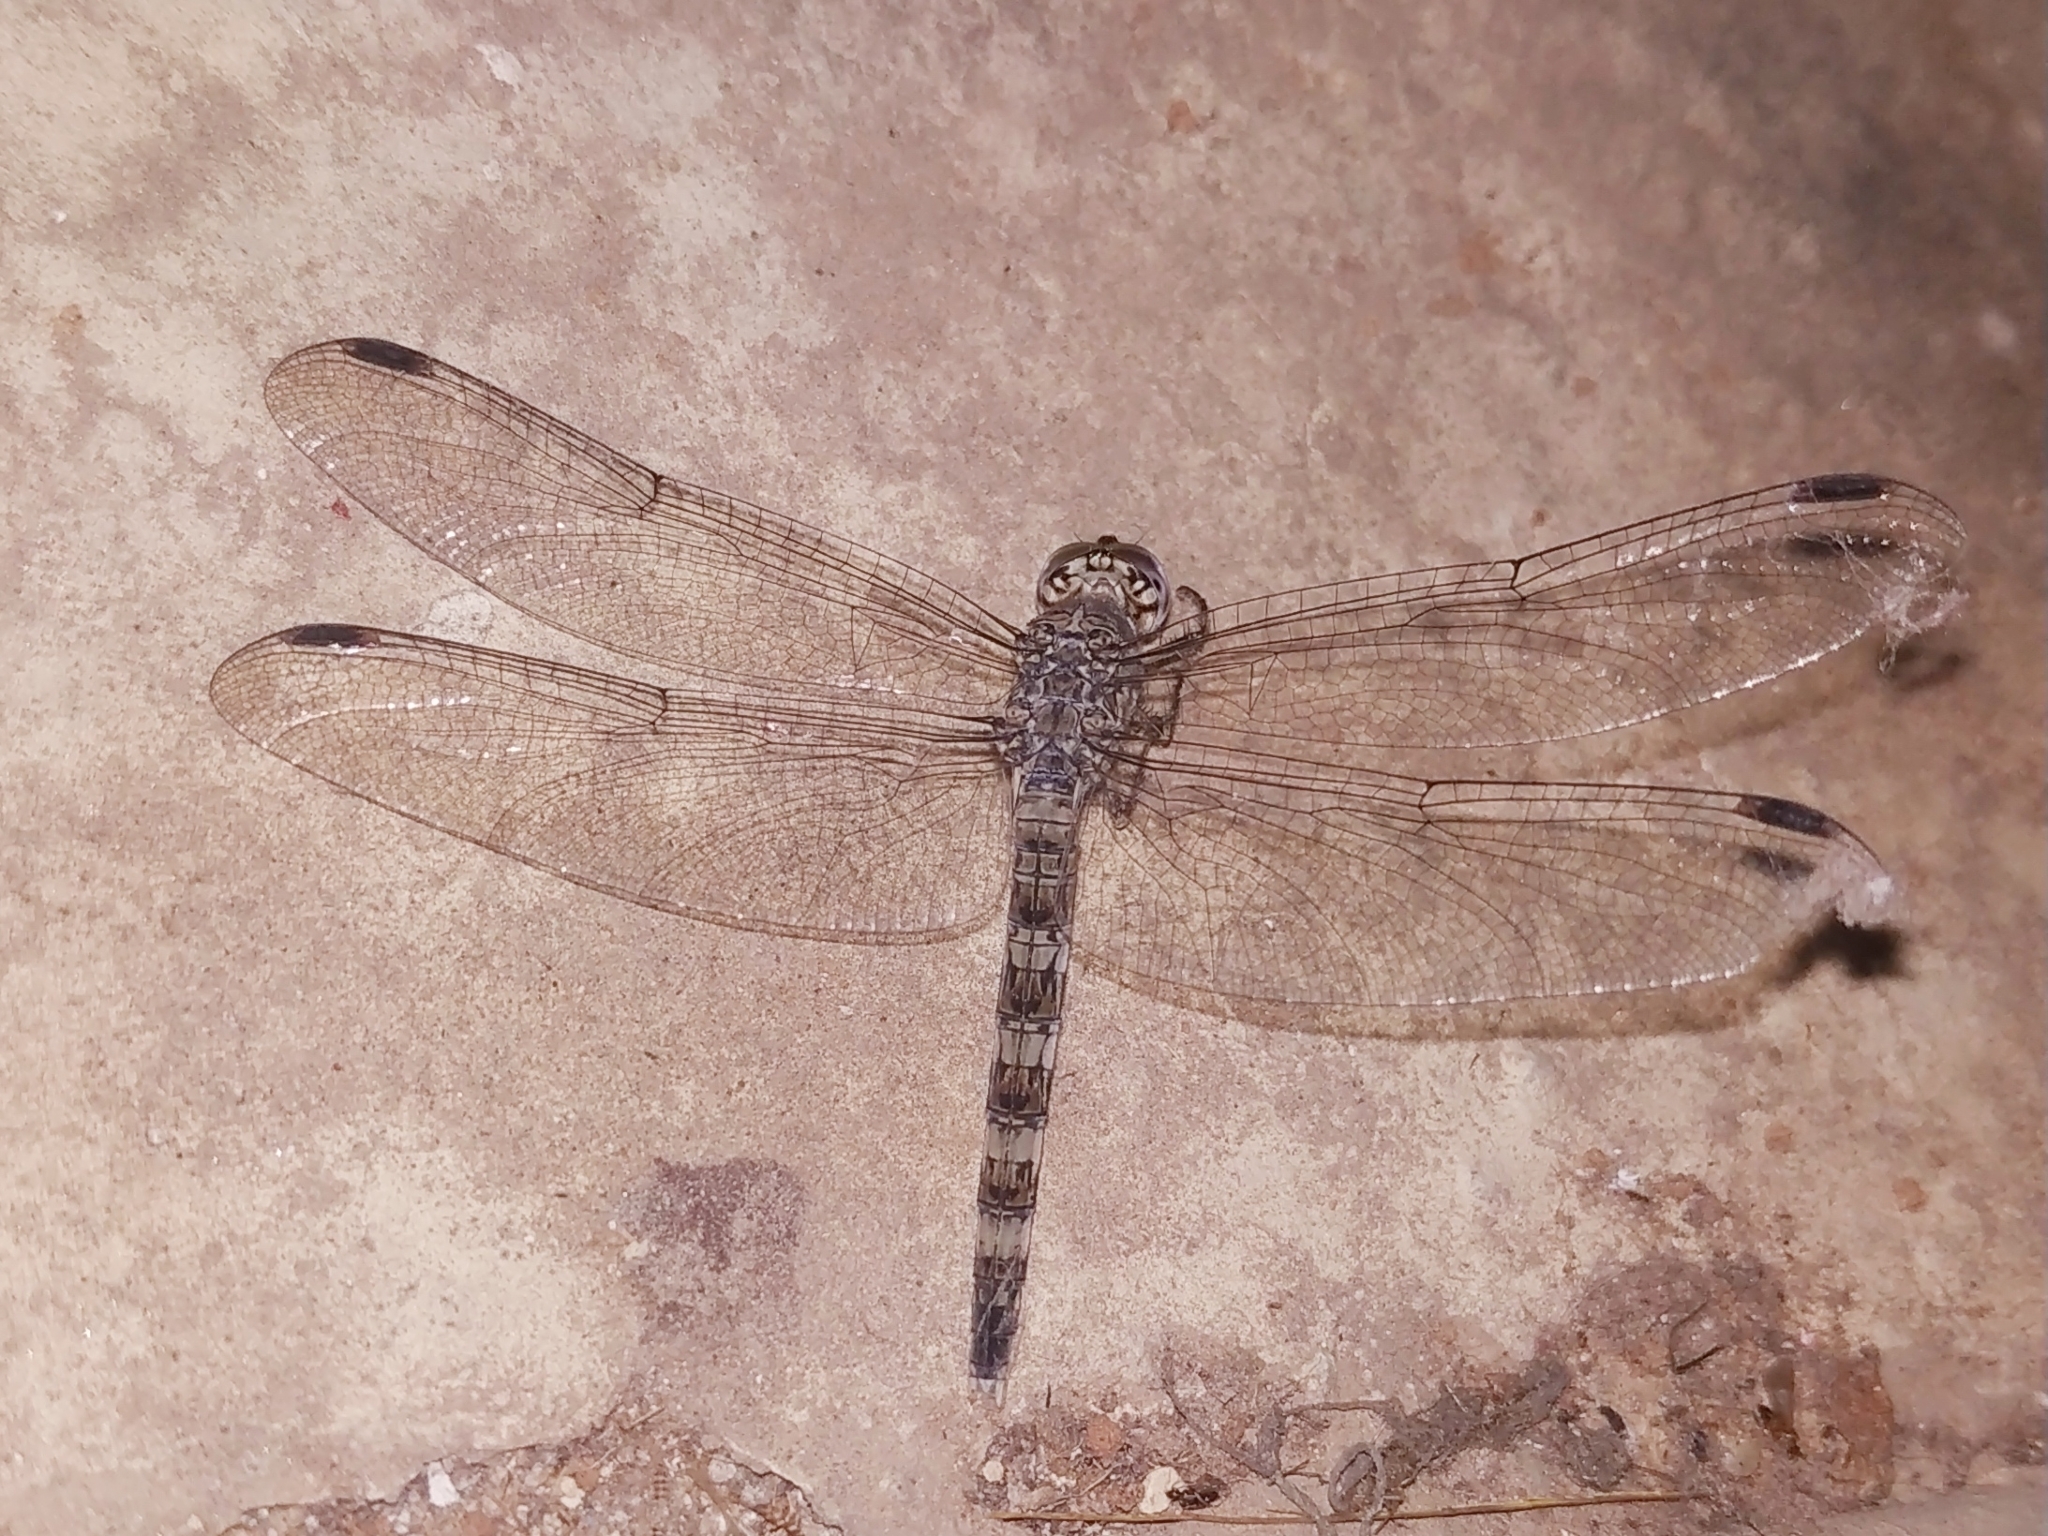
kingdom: Animalia
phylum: Arthropoda
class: Insecta
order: Odonata
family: Libellulidae
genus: Bradinopyga
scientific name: Bradinopyga geminata
